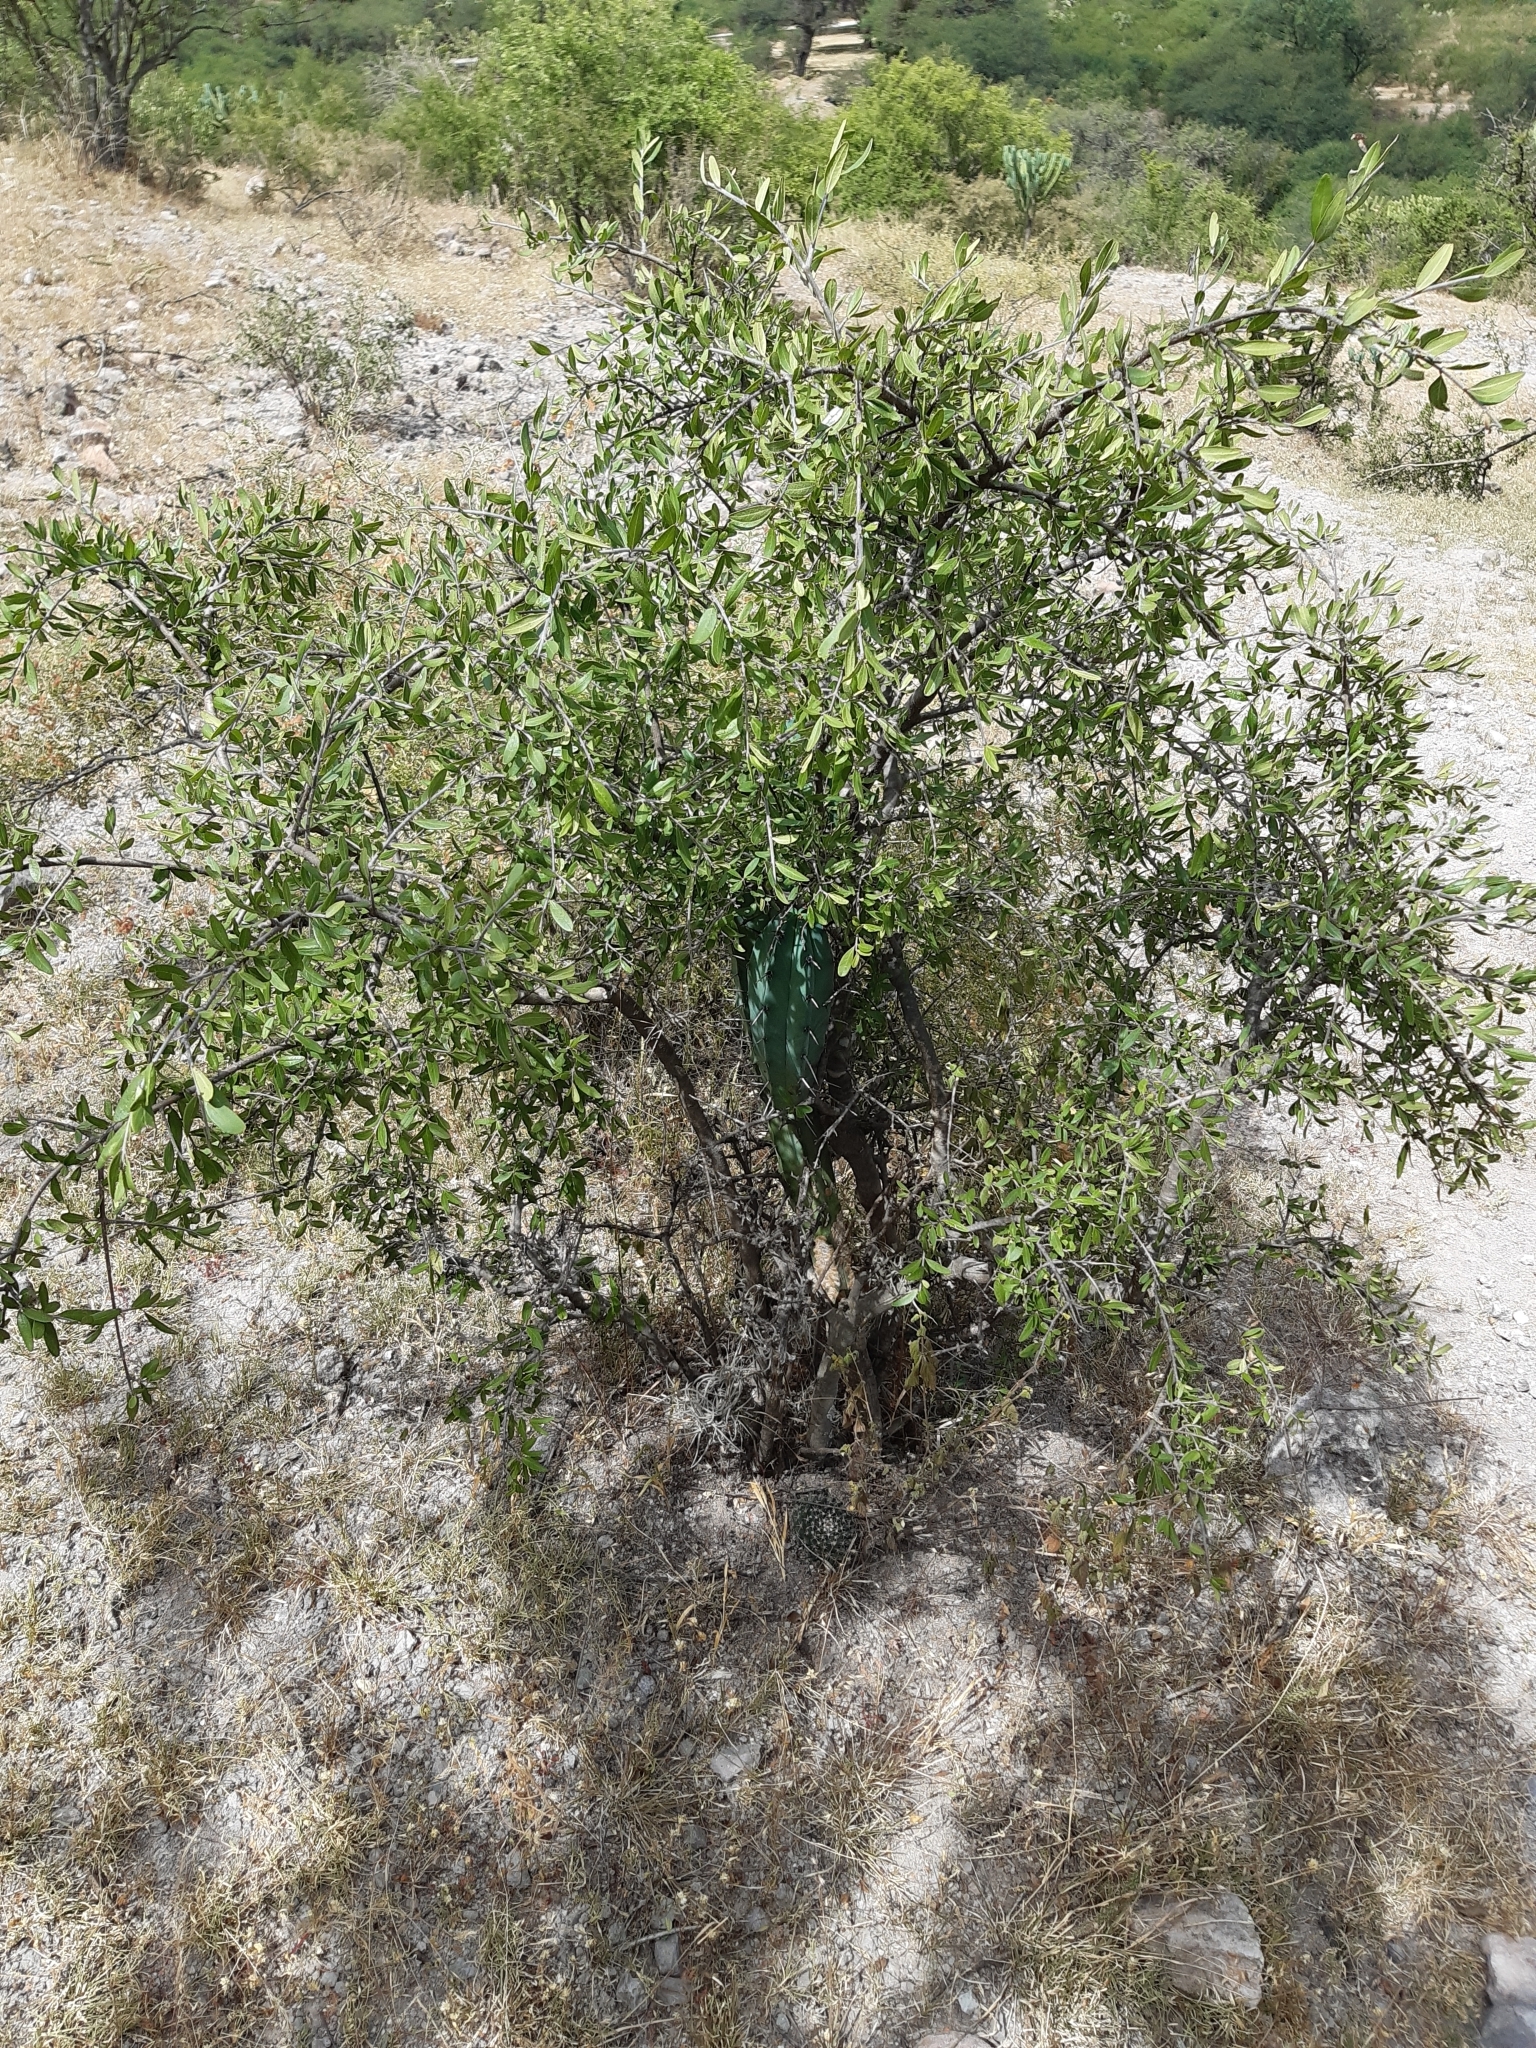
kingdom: Plantae
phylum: Tracheophyta
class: Magnoliopsida
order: Caryophyllales
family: Cactaceae
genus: Mammillaria
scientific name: Mammillaria uncinata
